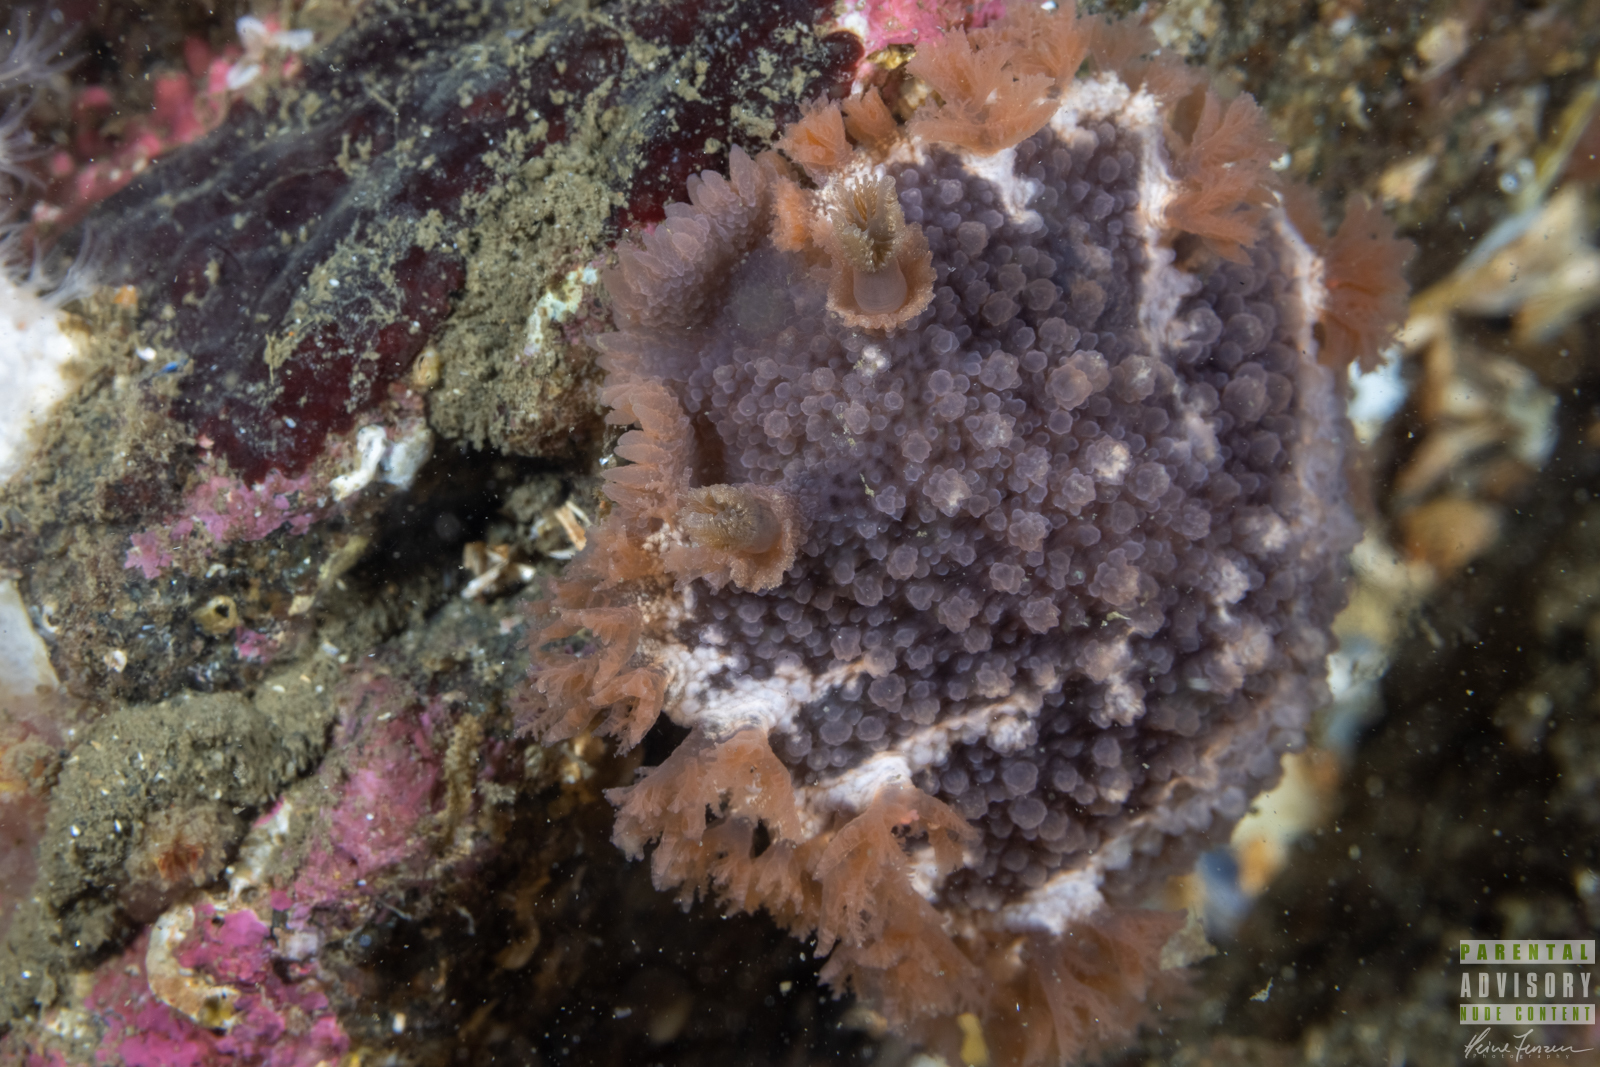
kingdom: Animalia
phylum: Mollusca
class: Gastropoda
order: Nudibranchia
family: Tritoniidae
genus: Tritonia
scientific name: Tritonia hombergii
